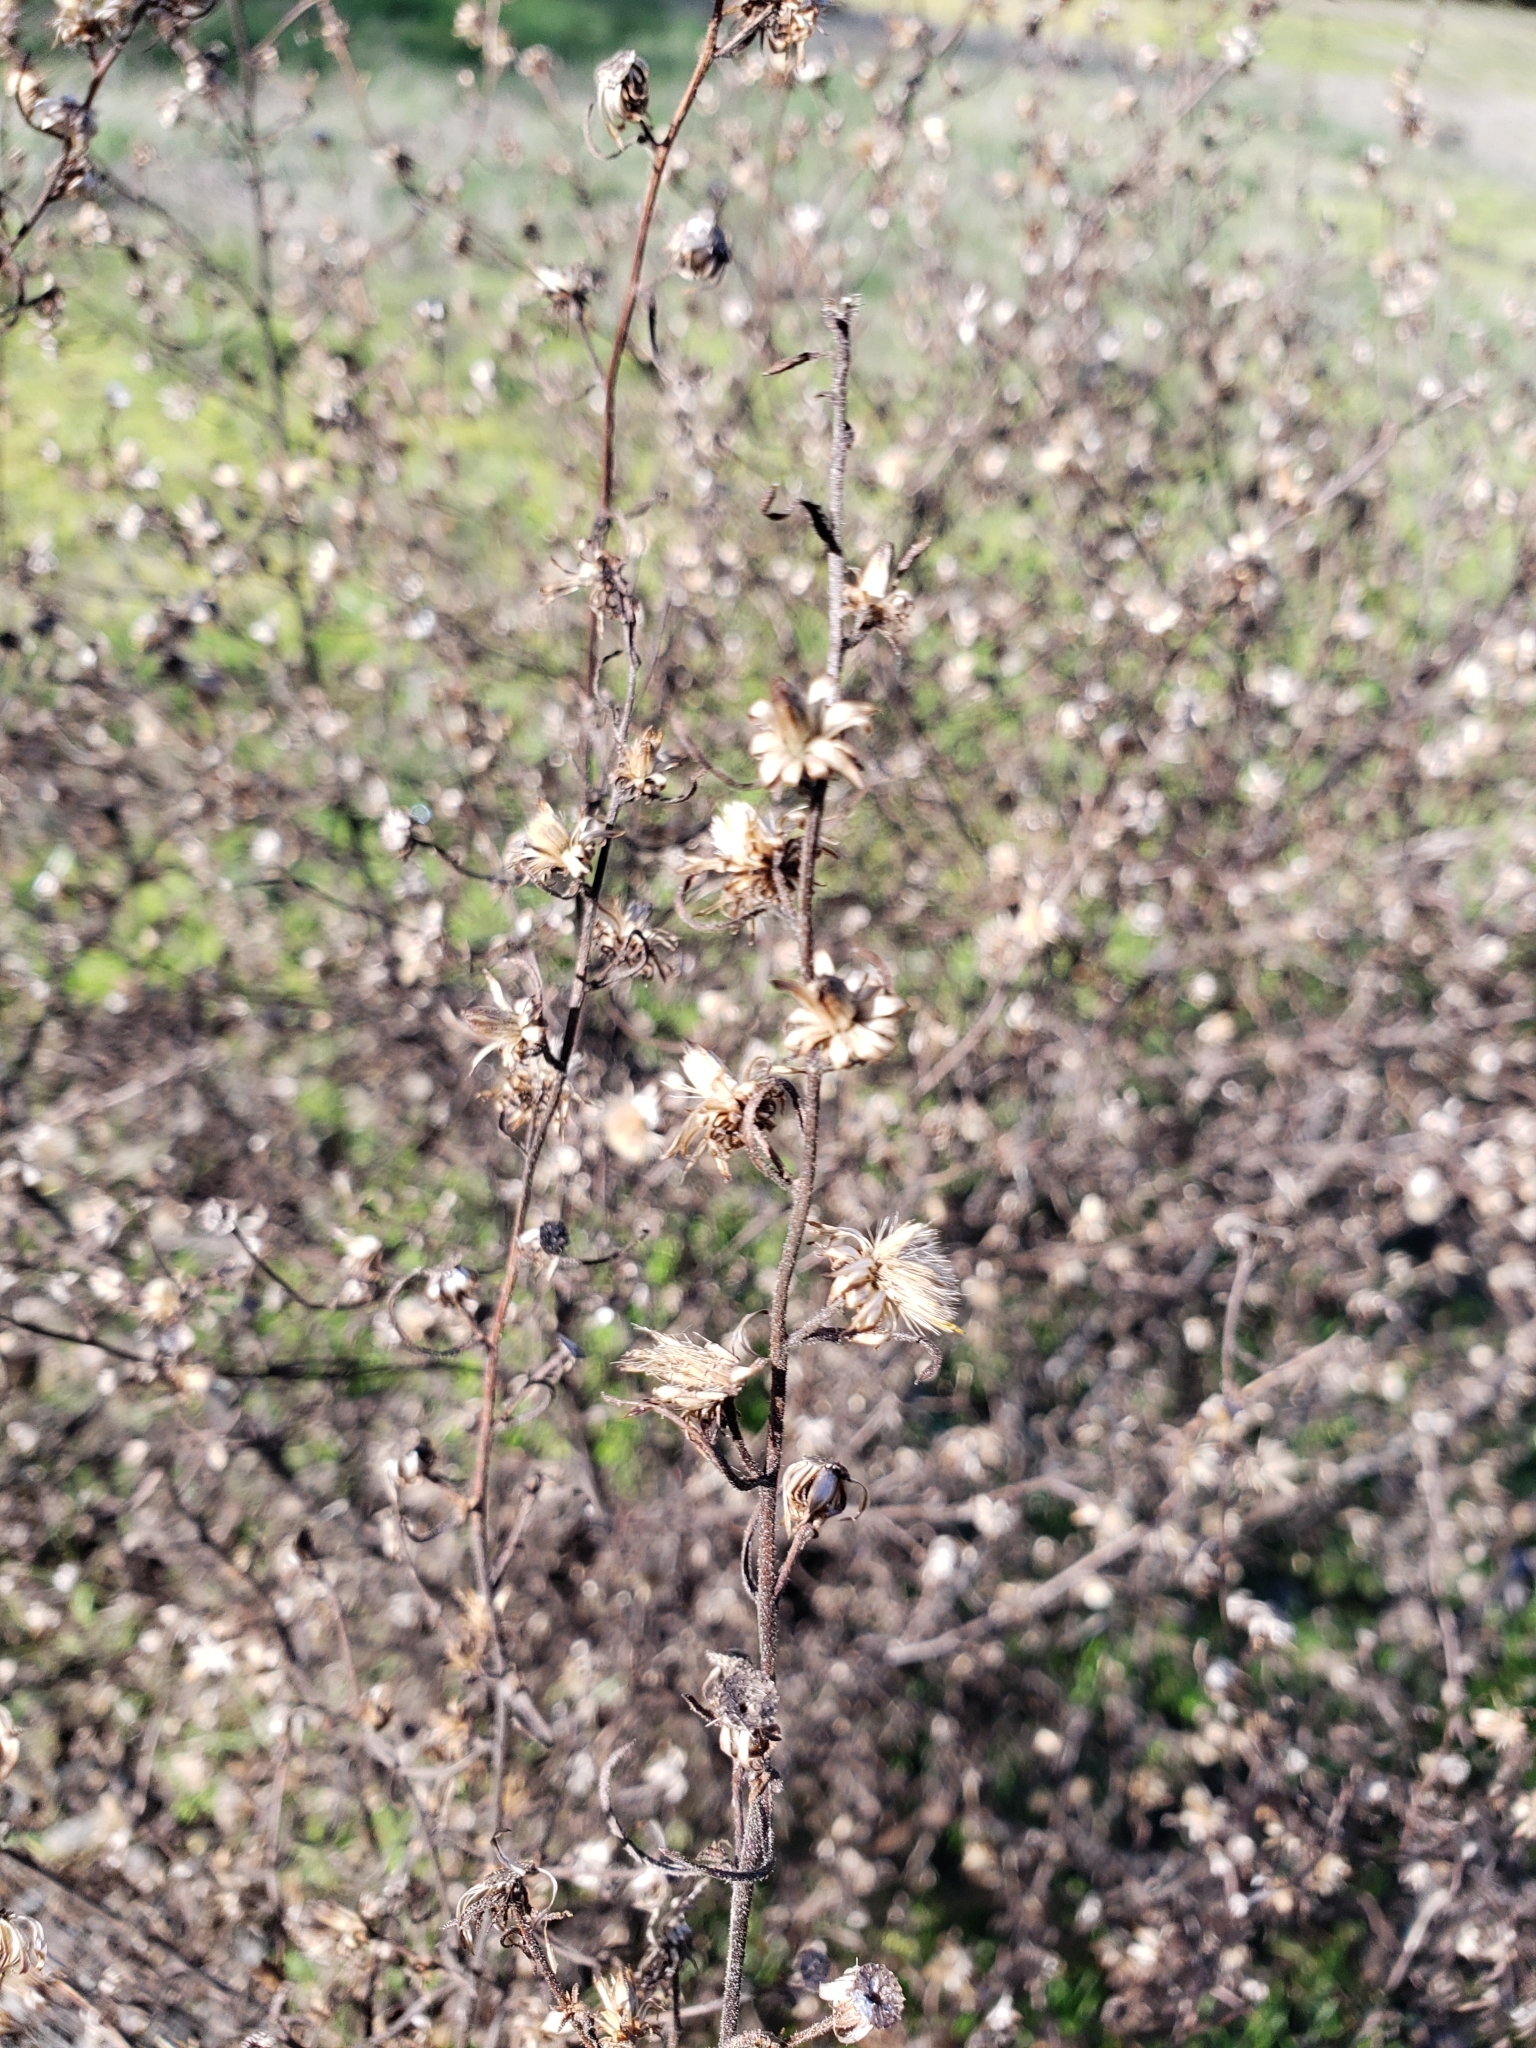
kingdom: Plantae
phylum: Tracheophyta
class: Magnoliopsida
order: Asterales
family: Asteraceae
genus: Dittrichia
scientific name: Dittrichia graveolens
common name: Stinking fleabane
